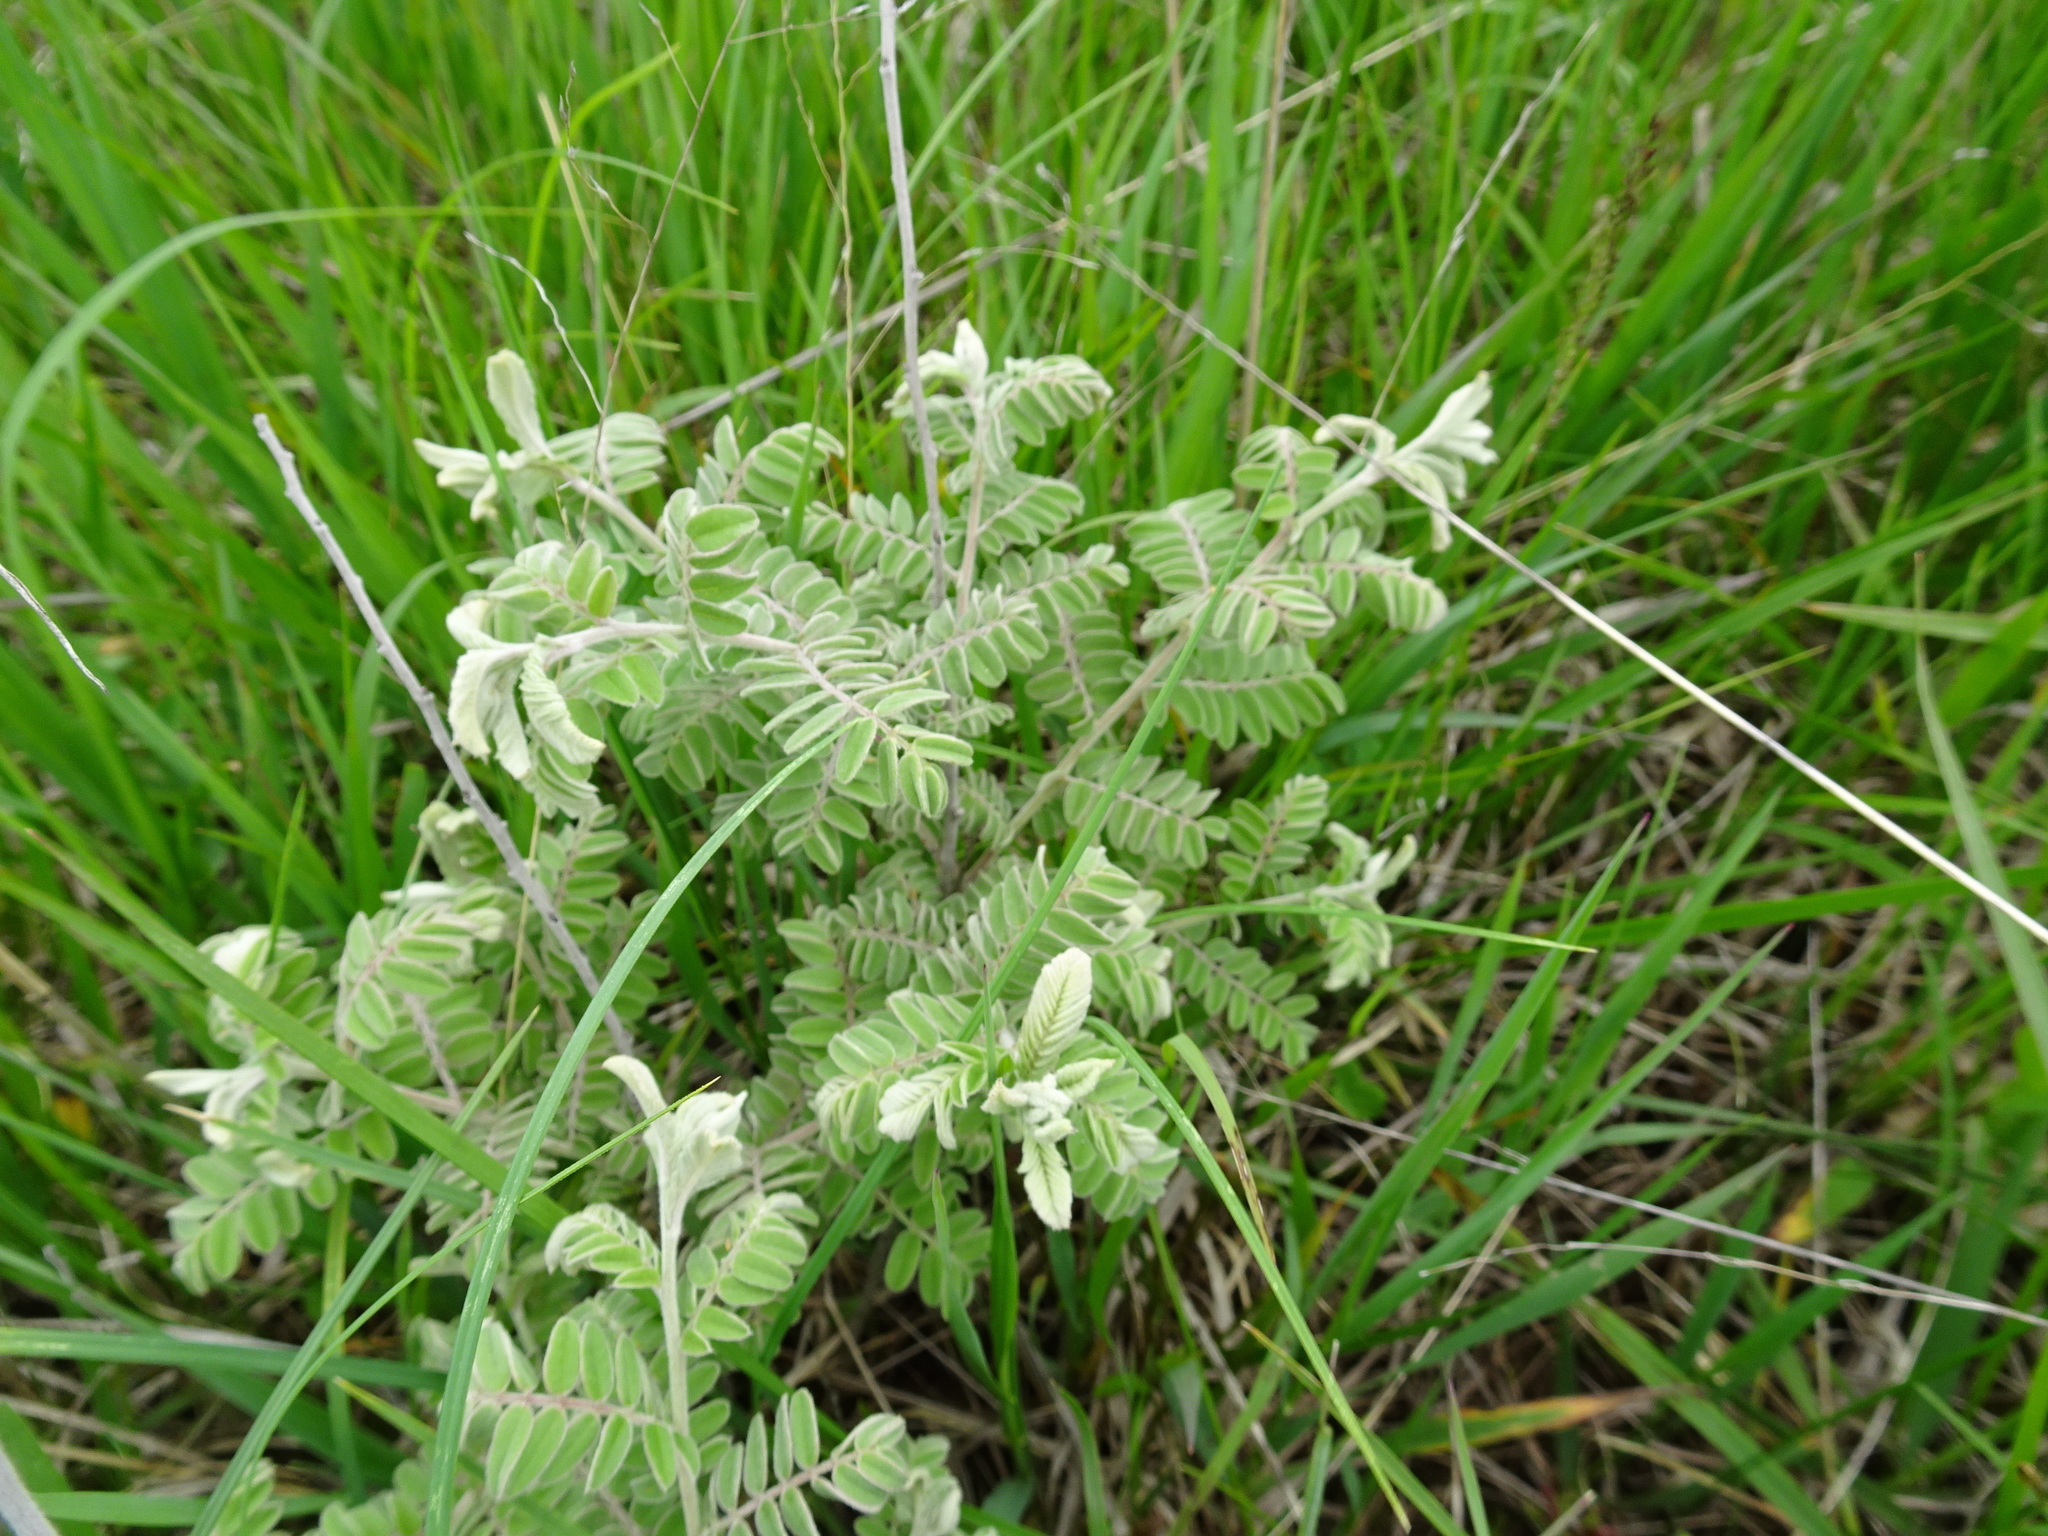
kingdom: Plantae
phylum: Tracheophyta
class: Magnoliopsida
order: Fabales
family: Fabaceae
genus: Amorpha
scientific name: Amorpha canescens
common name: Leadplant
